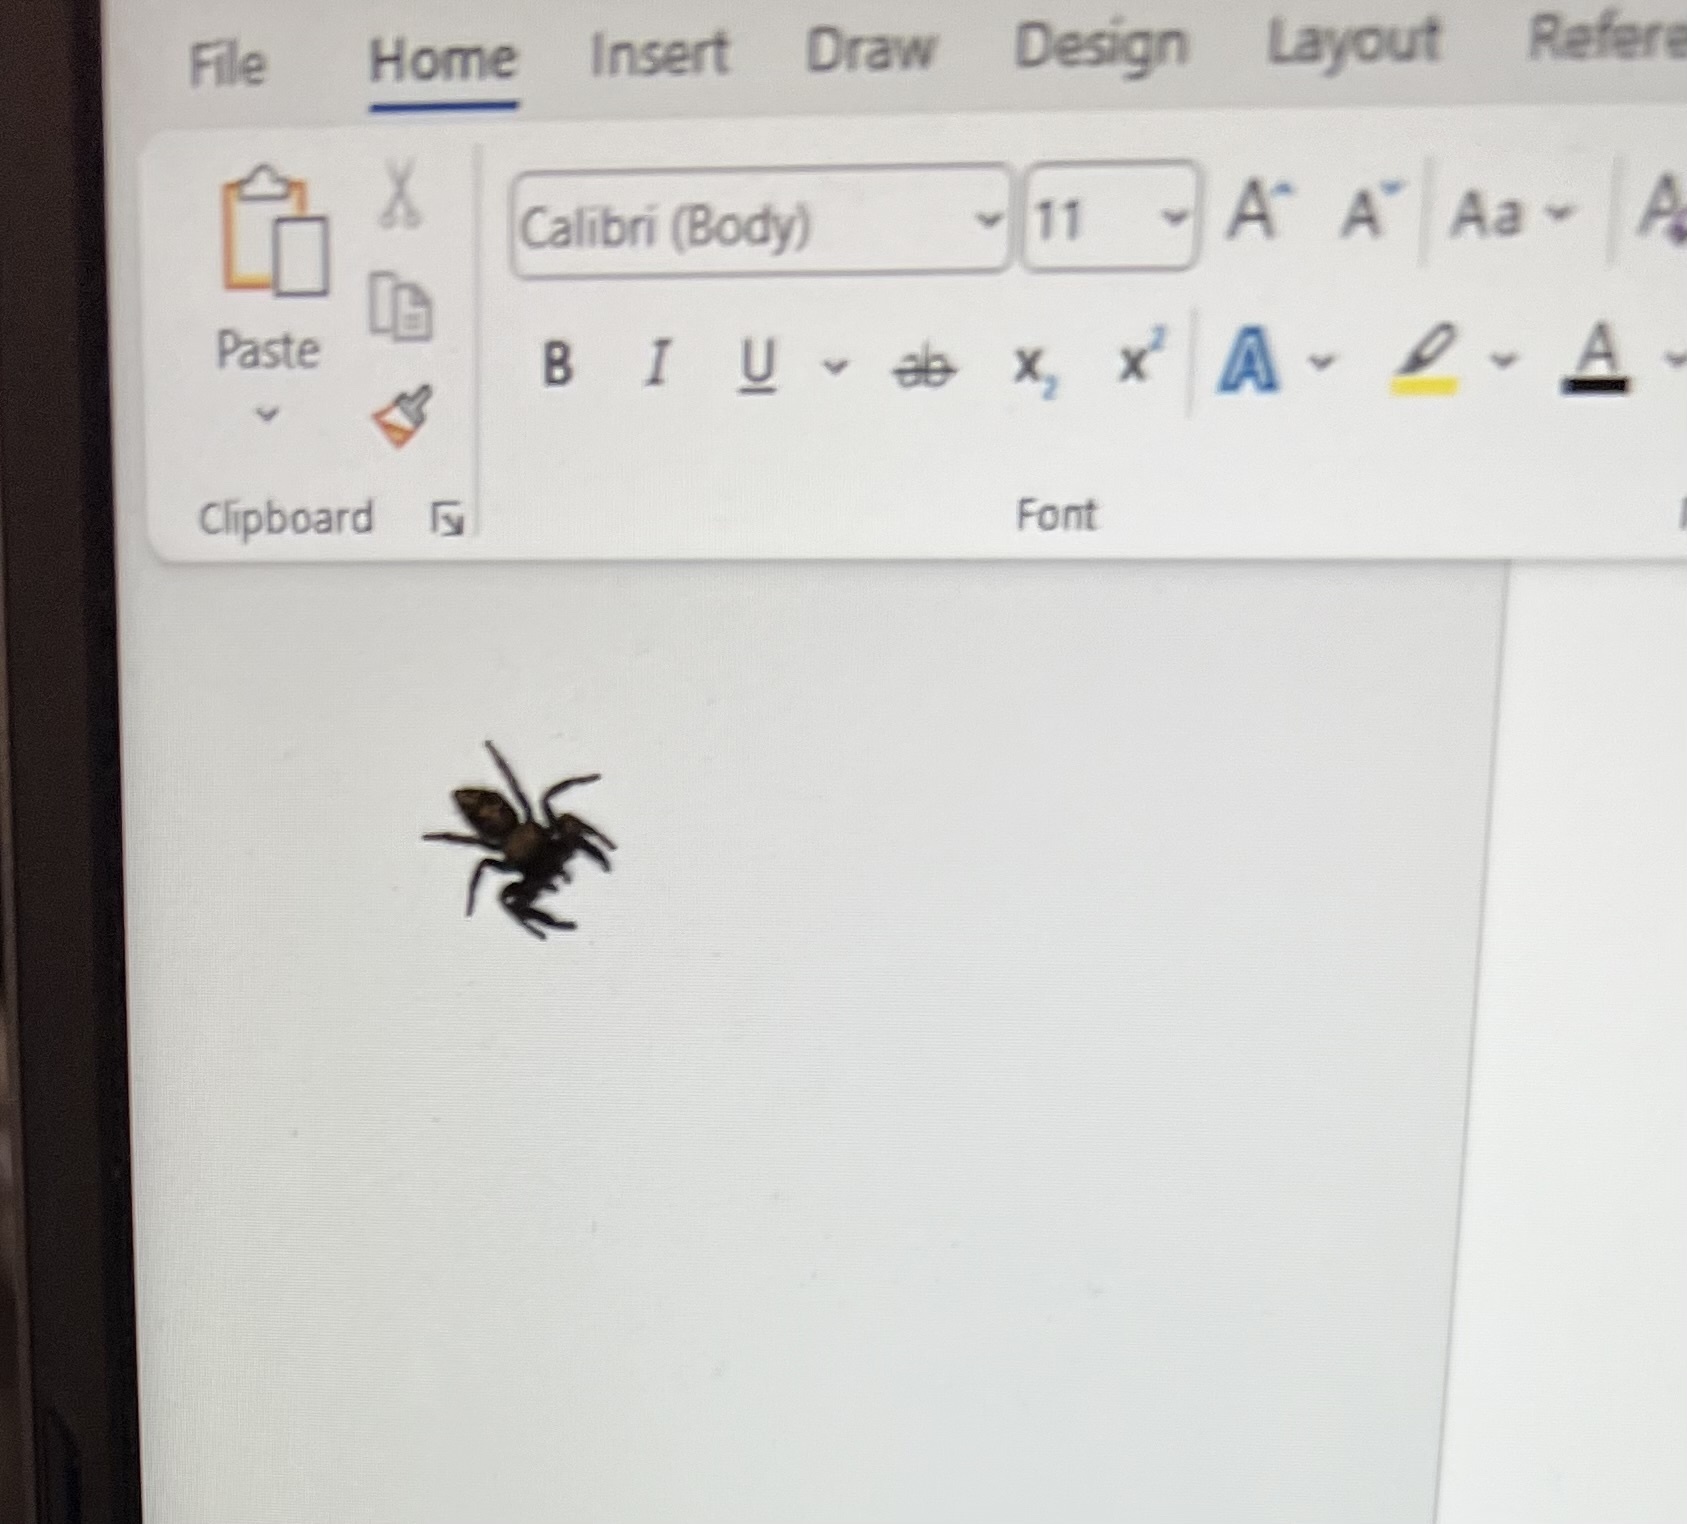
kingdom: Animalia
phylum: Arthropoda
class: Arachnida
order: Araneae
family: Salticidae
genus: Phidippus
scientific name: Phidippus audax
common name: Bold jumper
